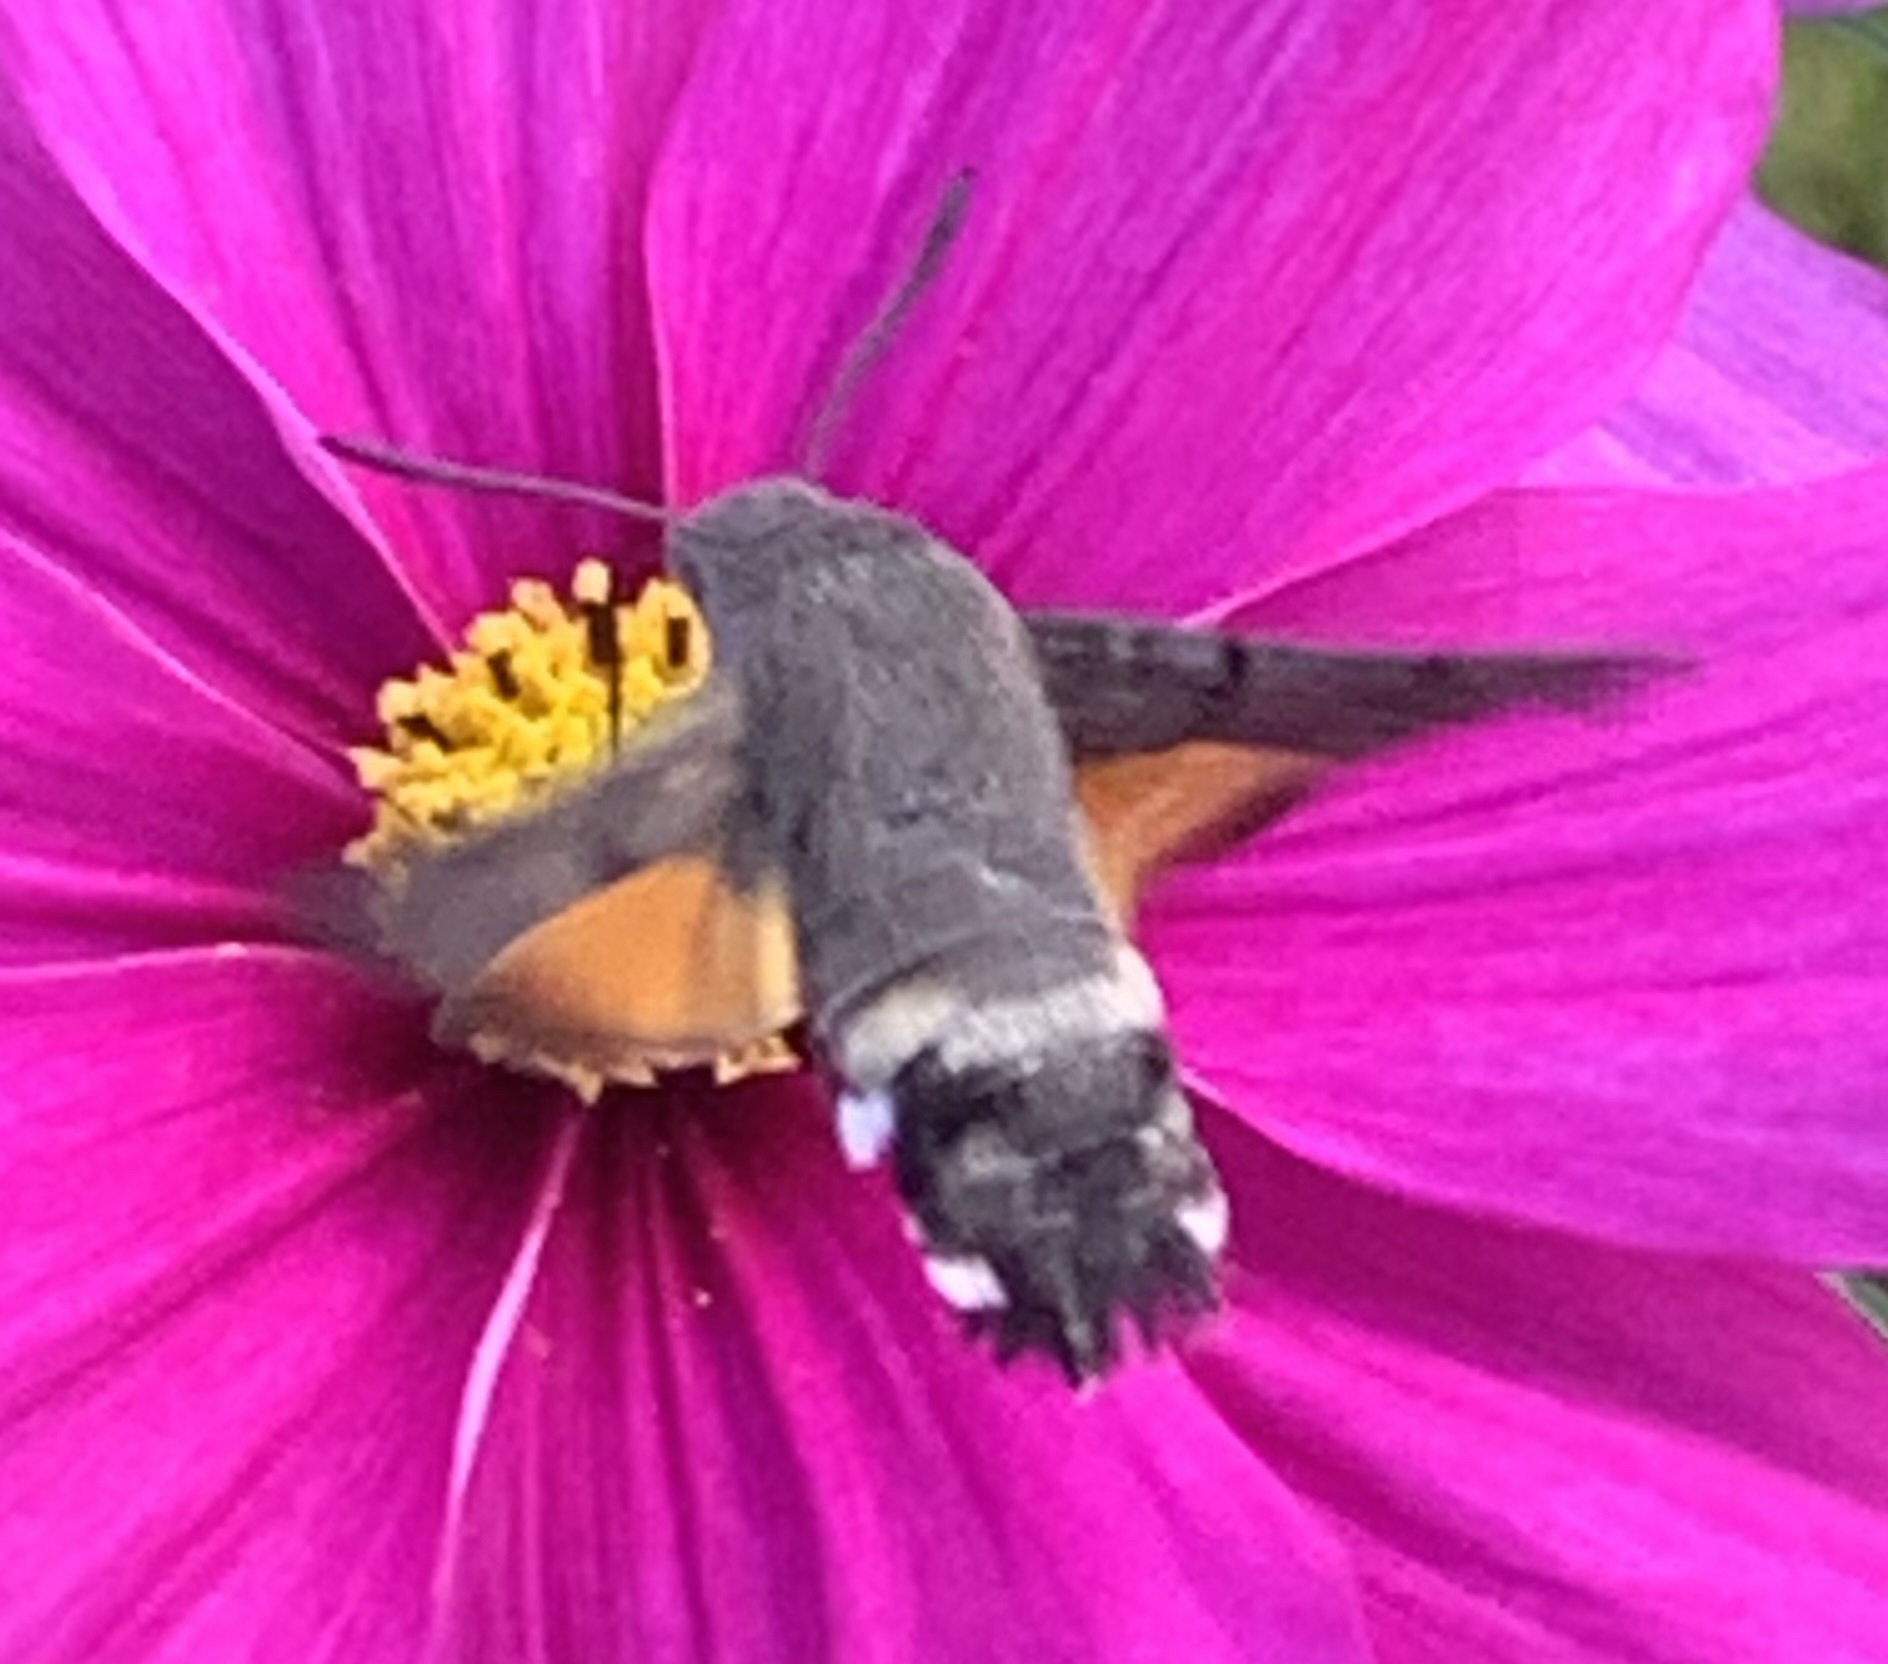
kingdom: Animalia
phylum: Arthropoda
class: Insecta
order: Lepidoptera
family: Sphingidae
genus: Macroglossum
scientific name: Macroglossum stellatarum
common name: Humming-bird hawk-moth
